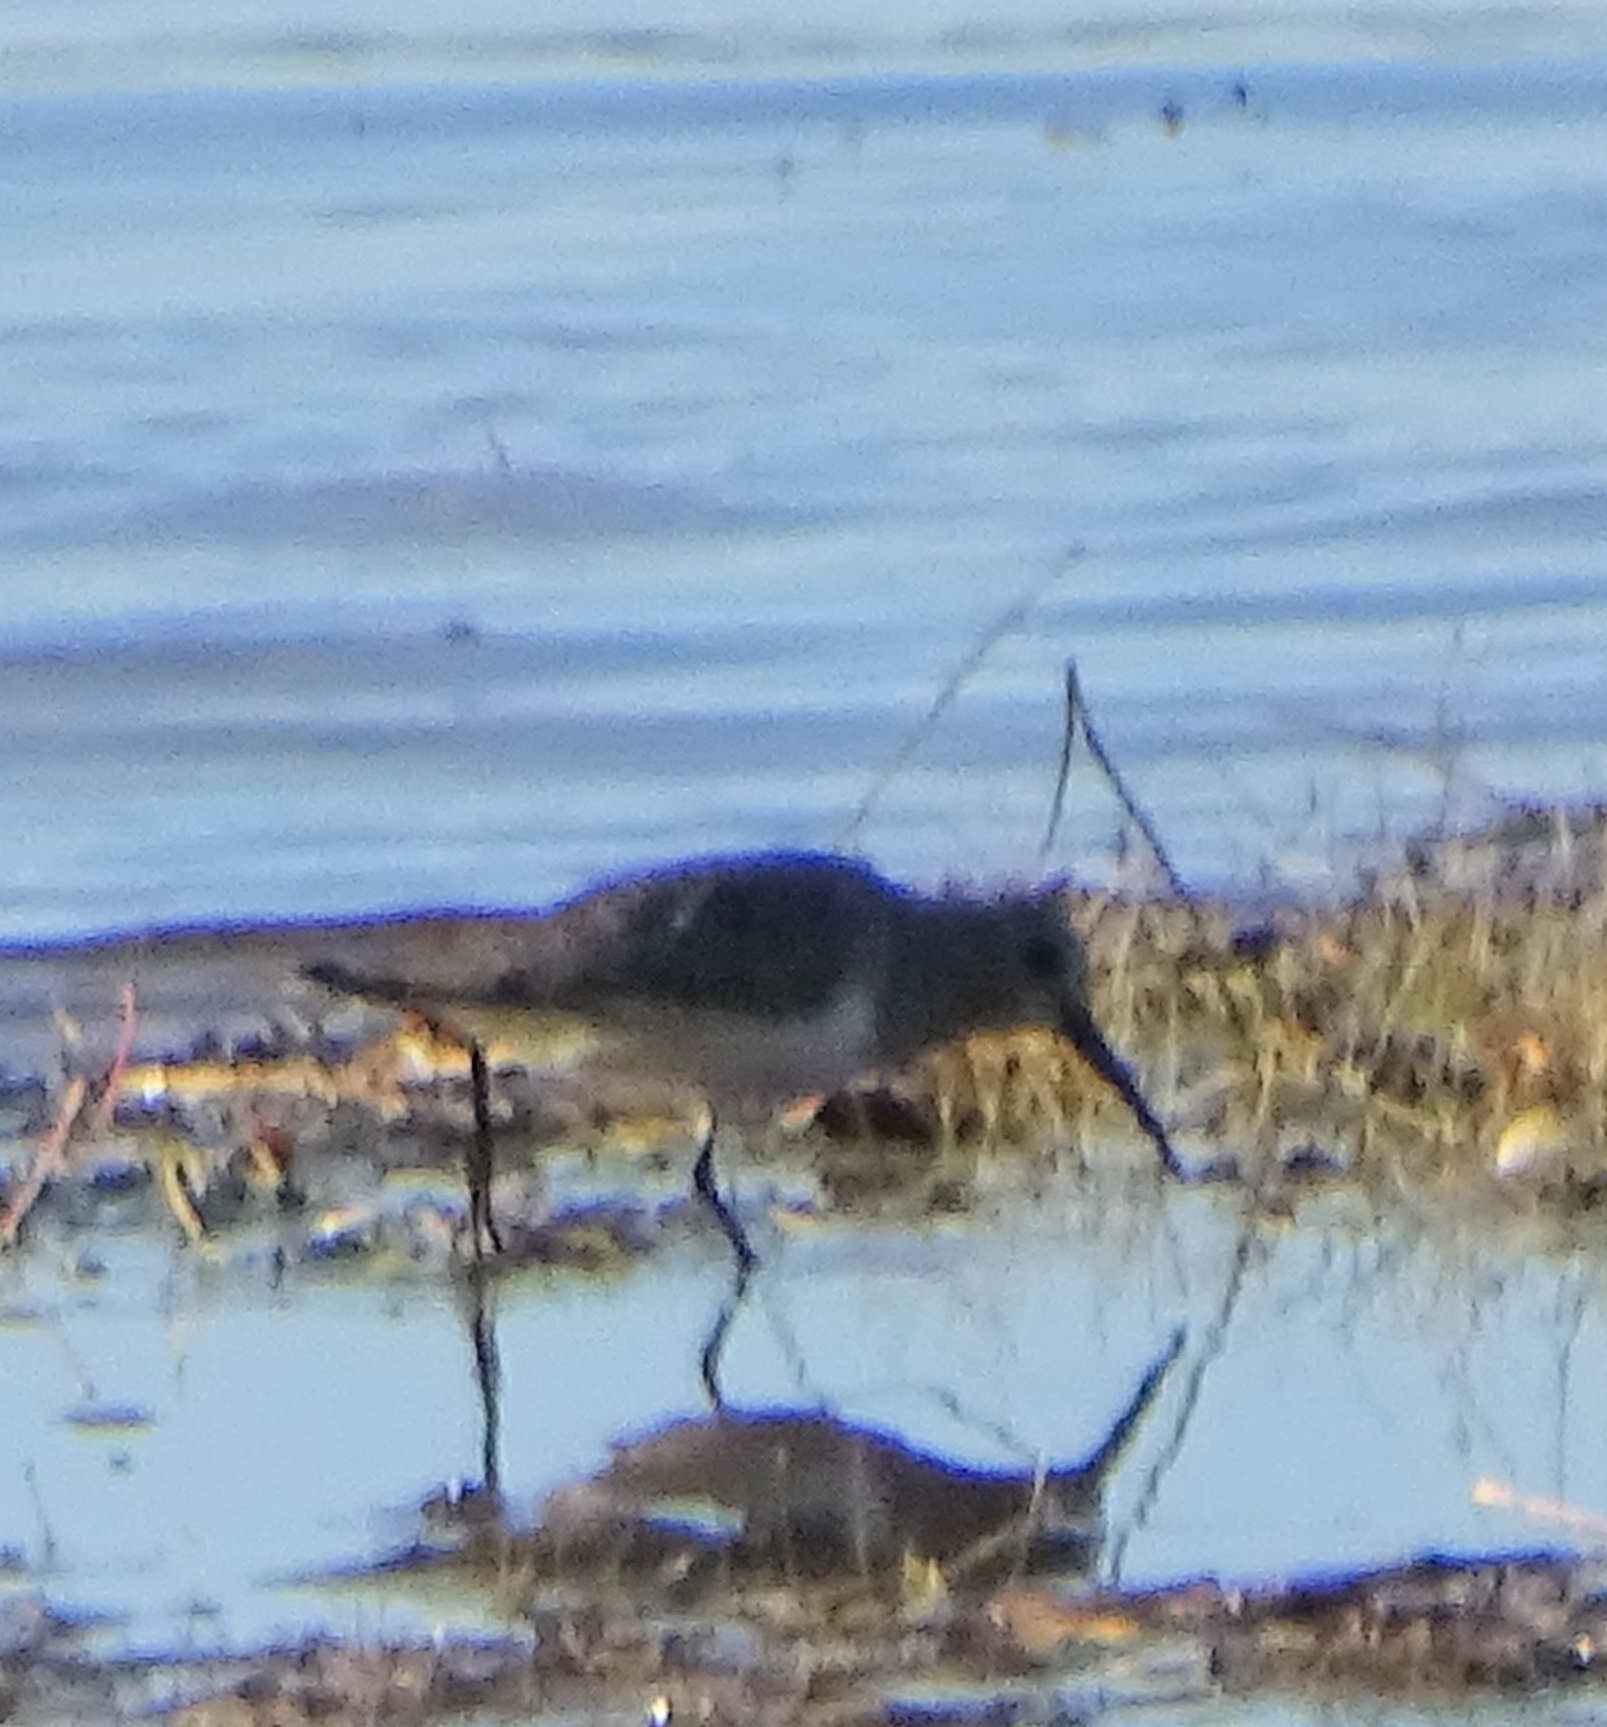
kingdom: Animalia
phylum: Chordata
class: Aves
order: Charadriiformes
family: Scolopacidae
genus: Calidris
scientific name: Calidris alpina
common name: Dunlin
